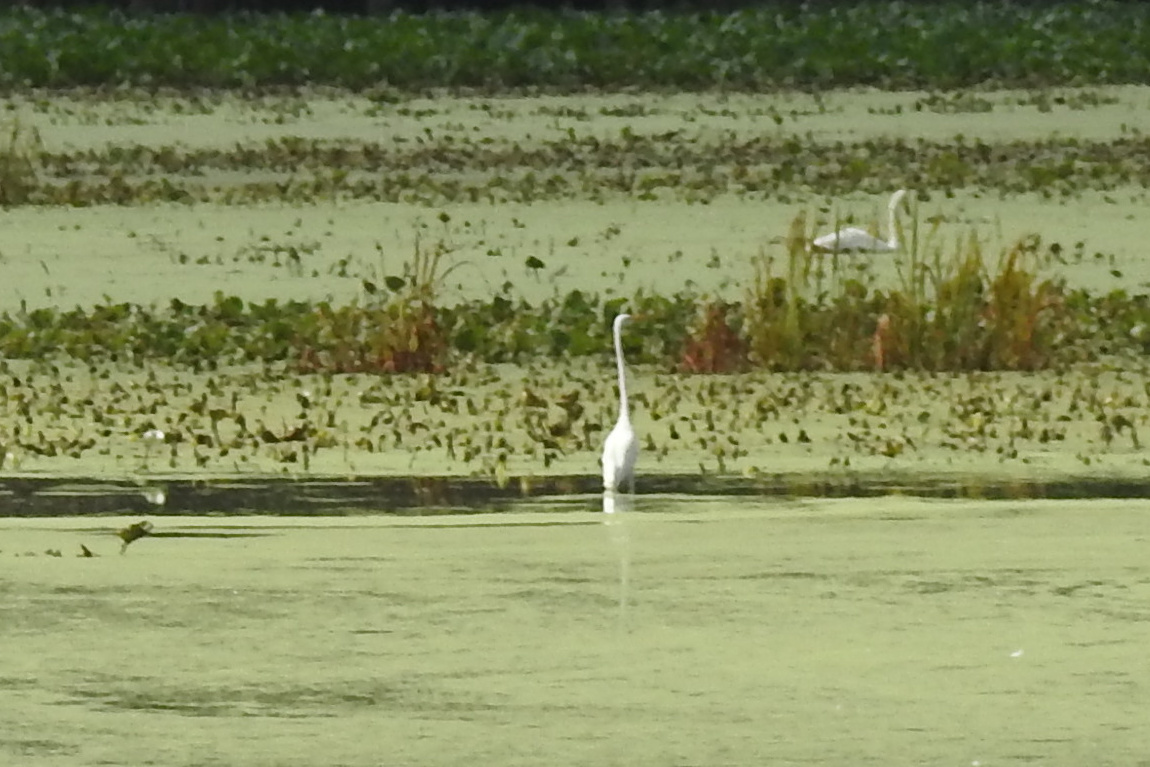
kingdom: Animalia
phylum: Chordata
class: Aves
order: Pelecaniformes
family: Ardeidae
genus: Ardea
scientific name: Ardea alba
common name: Great egret
